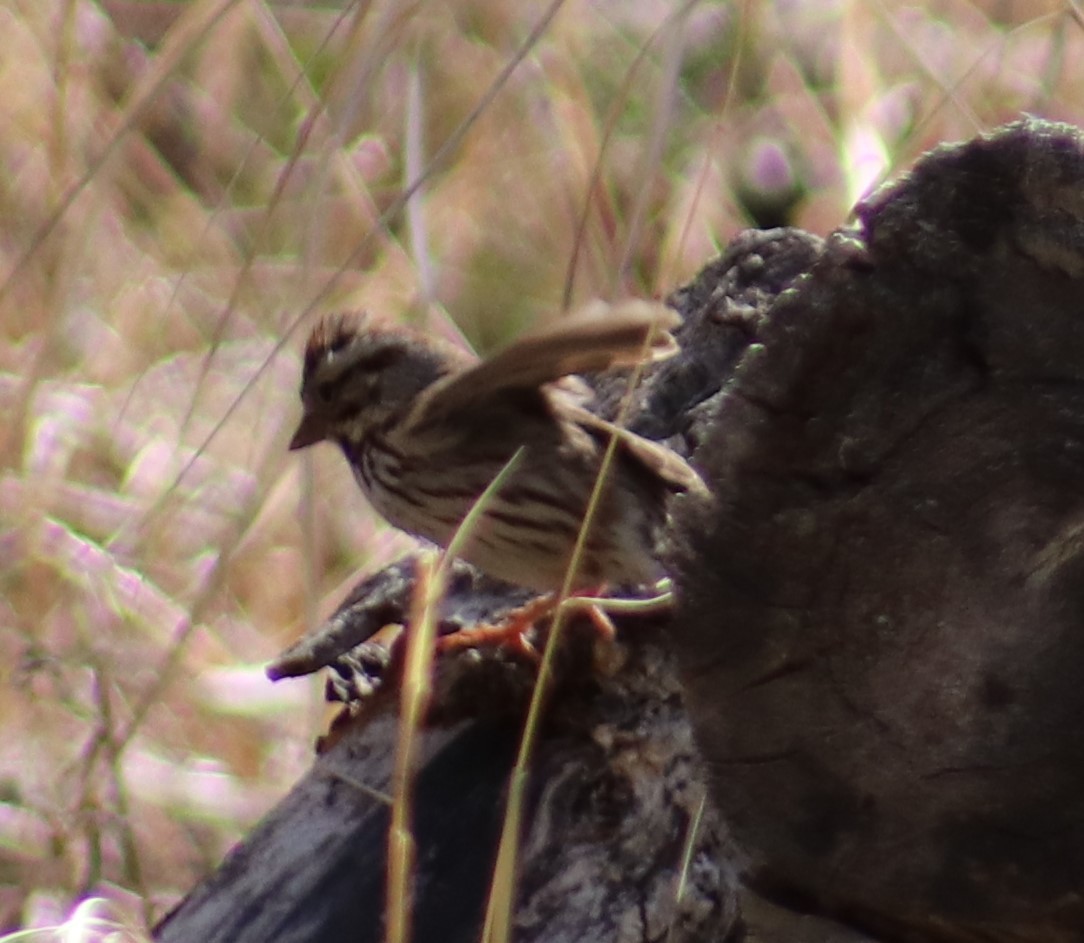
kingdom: Animalia
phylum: Chordata
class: Aves
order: Passeriformes
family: Passerellidae
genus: Melospiza
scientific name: Melospiza melodia
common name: Song sparrow
